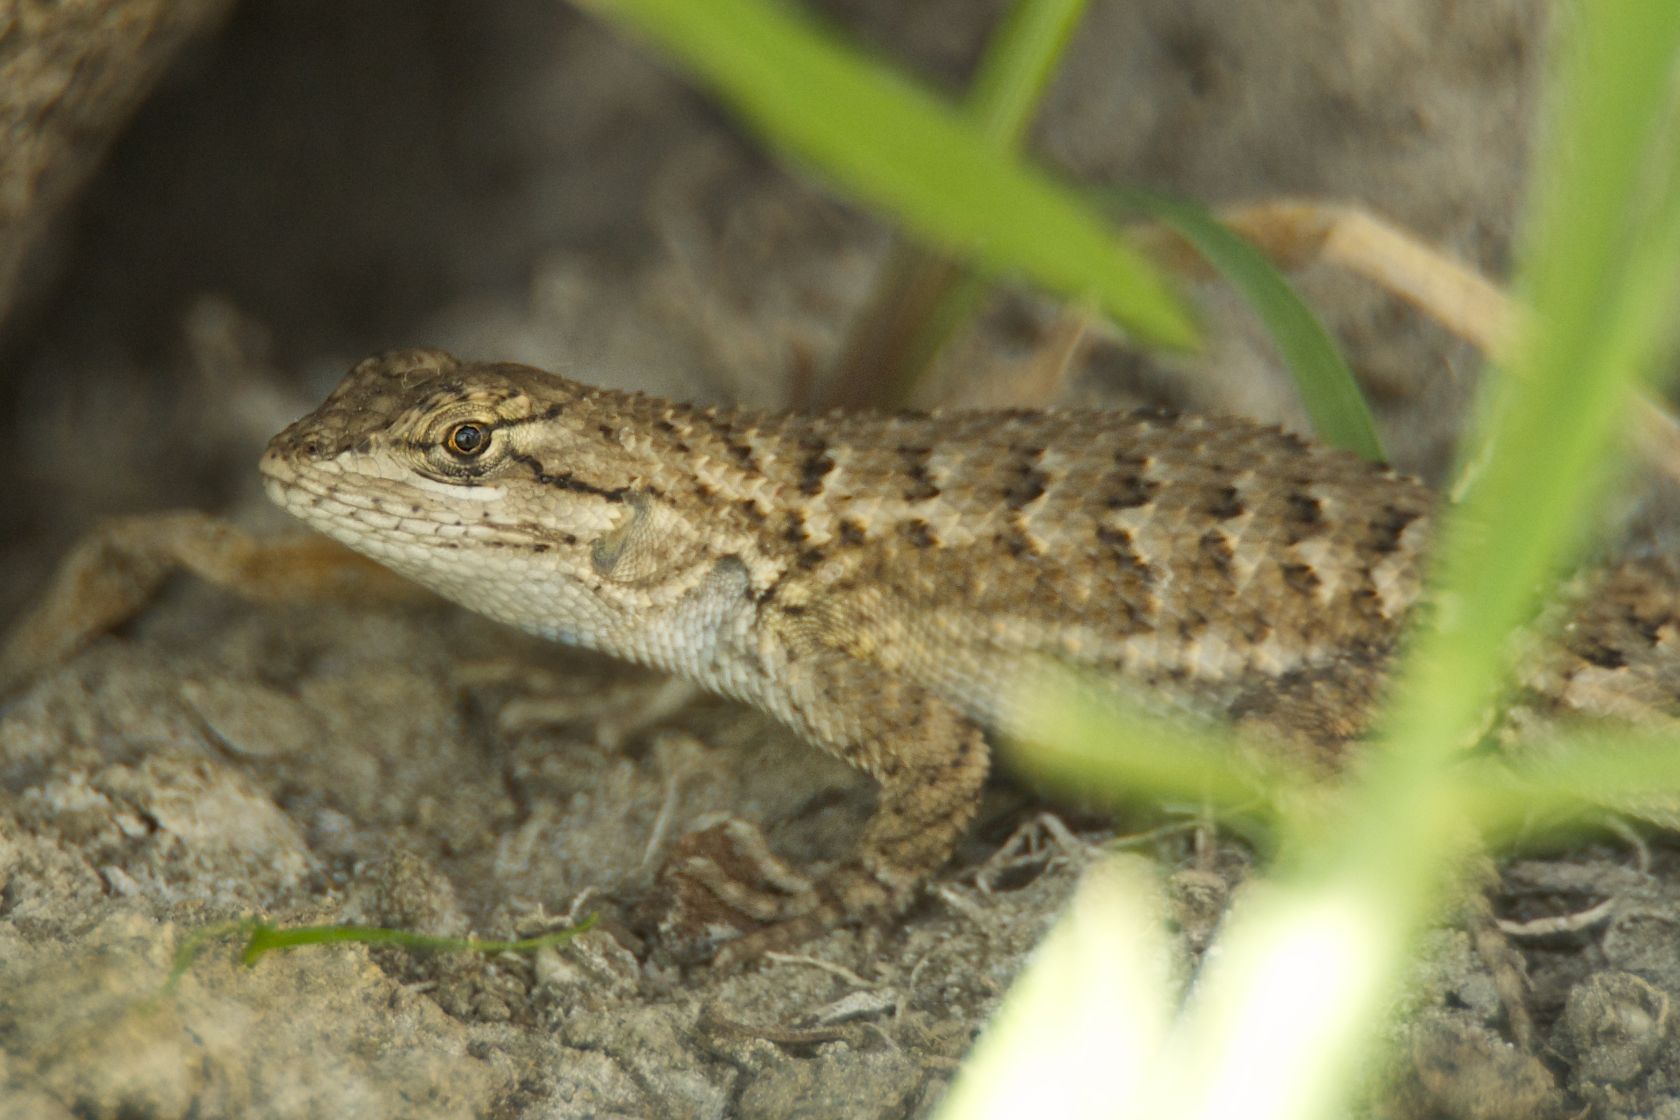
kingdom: Animalia
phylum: Chordata
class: Squamata
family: Phrynosomatidae
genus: Sceloporus
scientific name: Sceloporus occidentalis
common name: Western fence lizard
